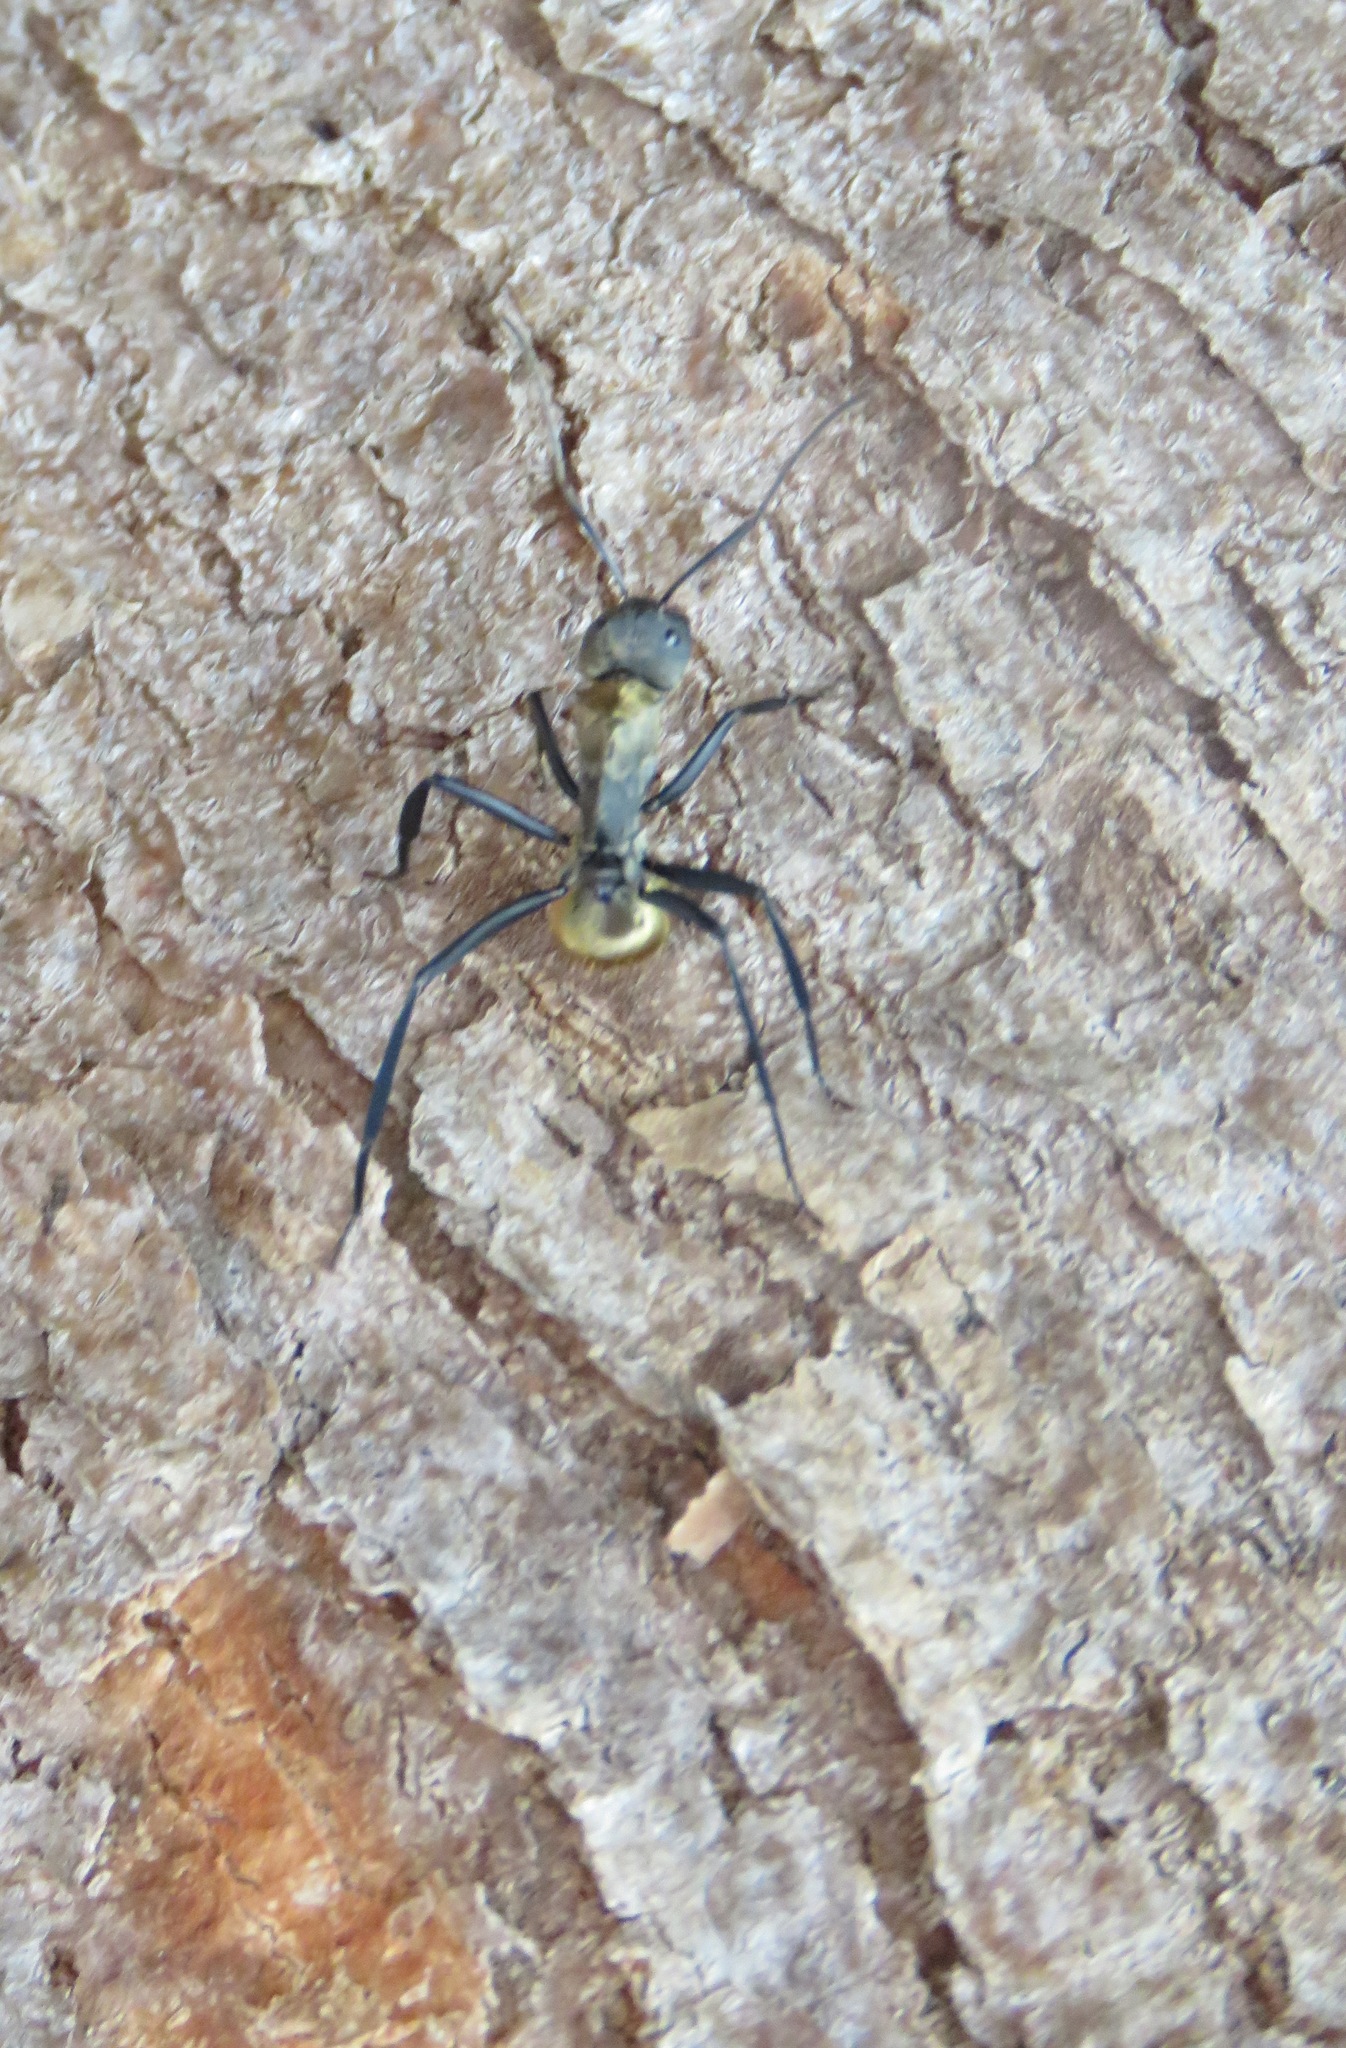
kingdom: Animalia
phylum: Arthropoda
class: Insecta
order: Hymenoptera
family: Formicidae
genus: Camponotus
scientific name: Camponotus sericeiventris
